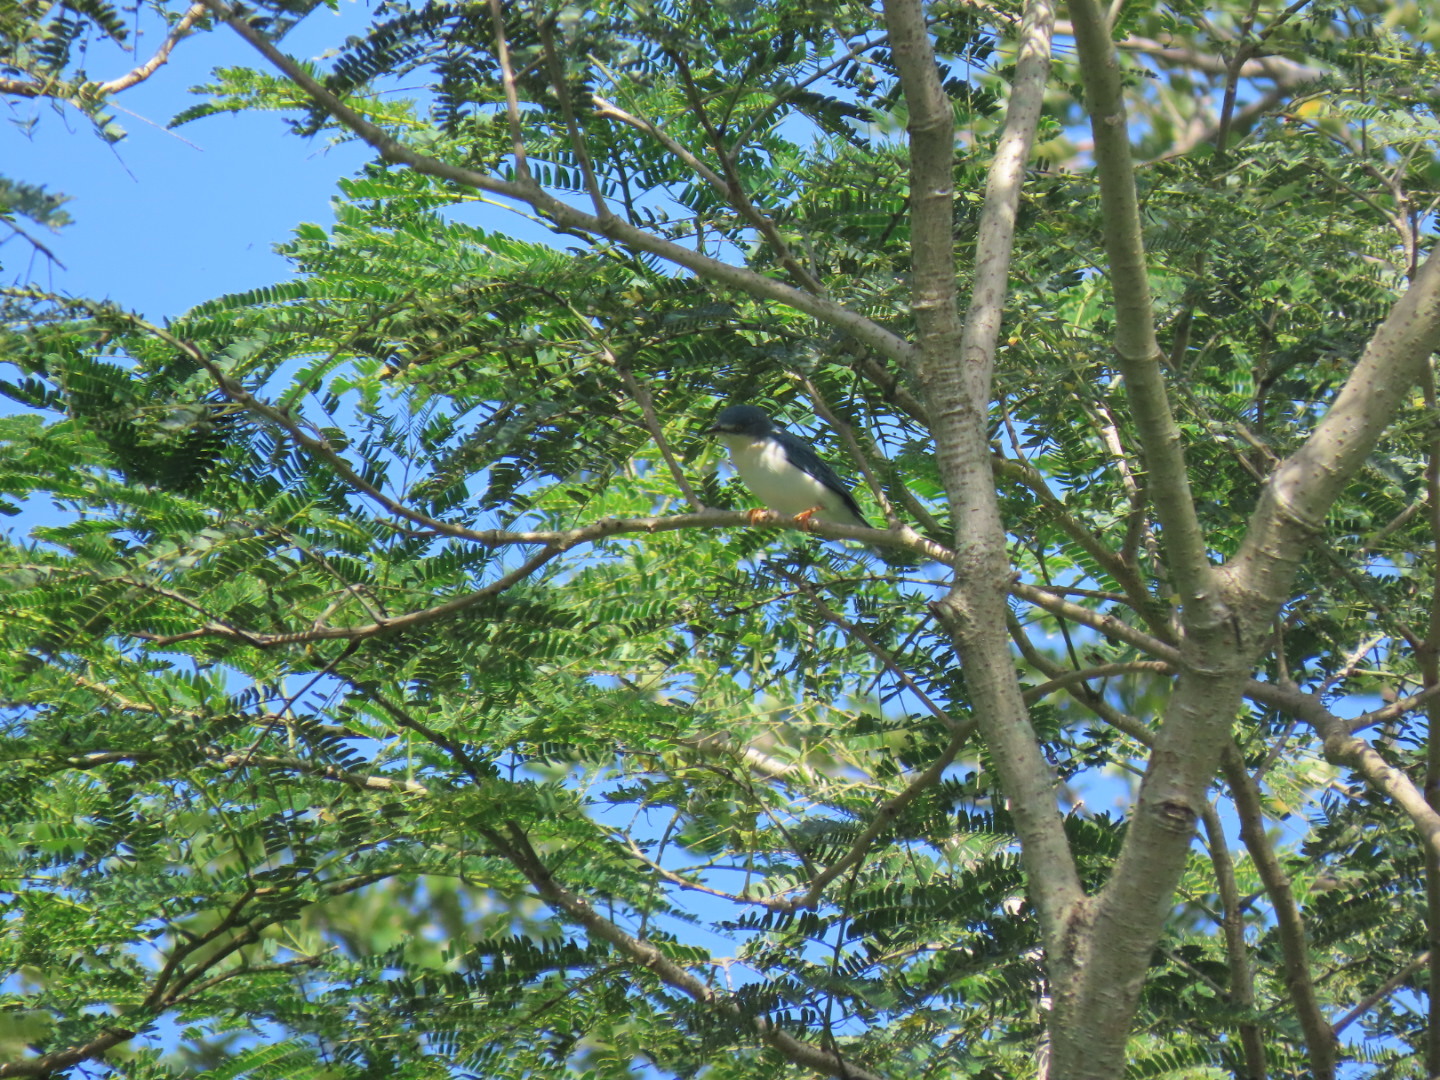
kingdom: Animalia
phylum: Chordata
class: Aves
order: Passeriformes
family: Thraupidae
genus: Nemosia
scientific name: Nemosia pileata
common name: Hooded tanager
